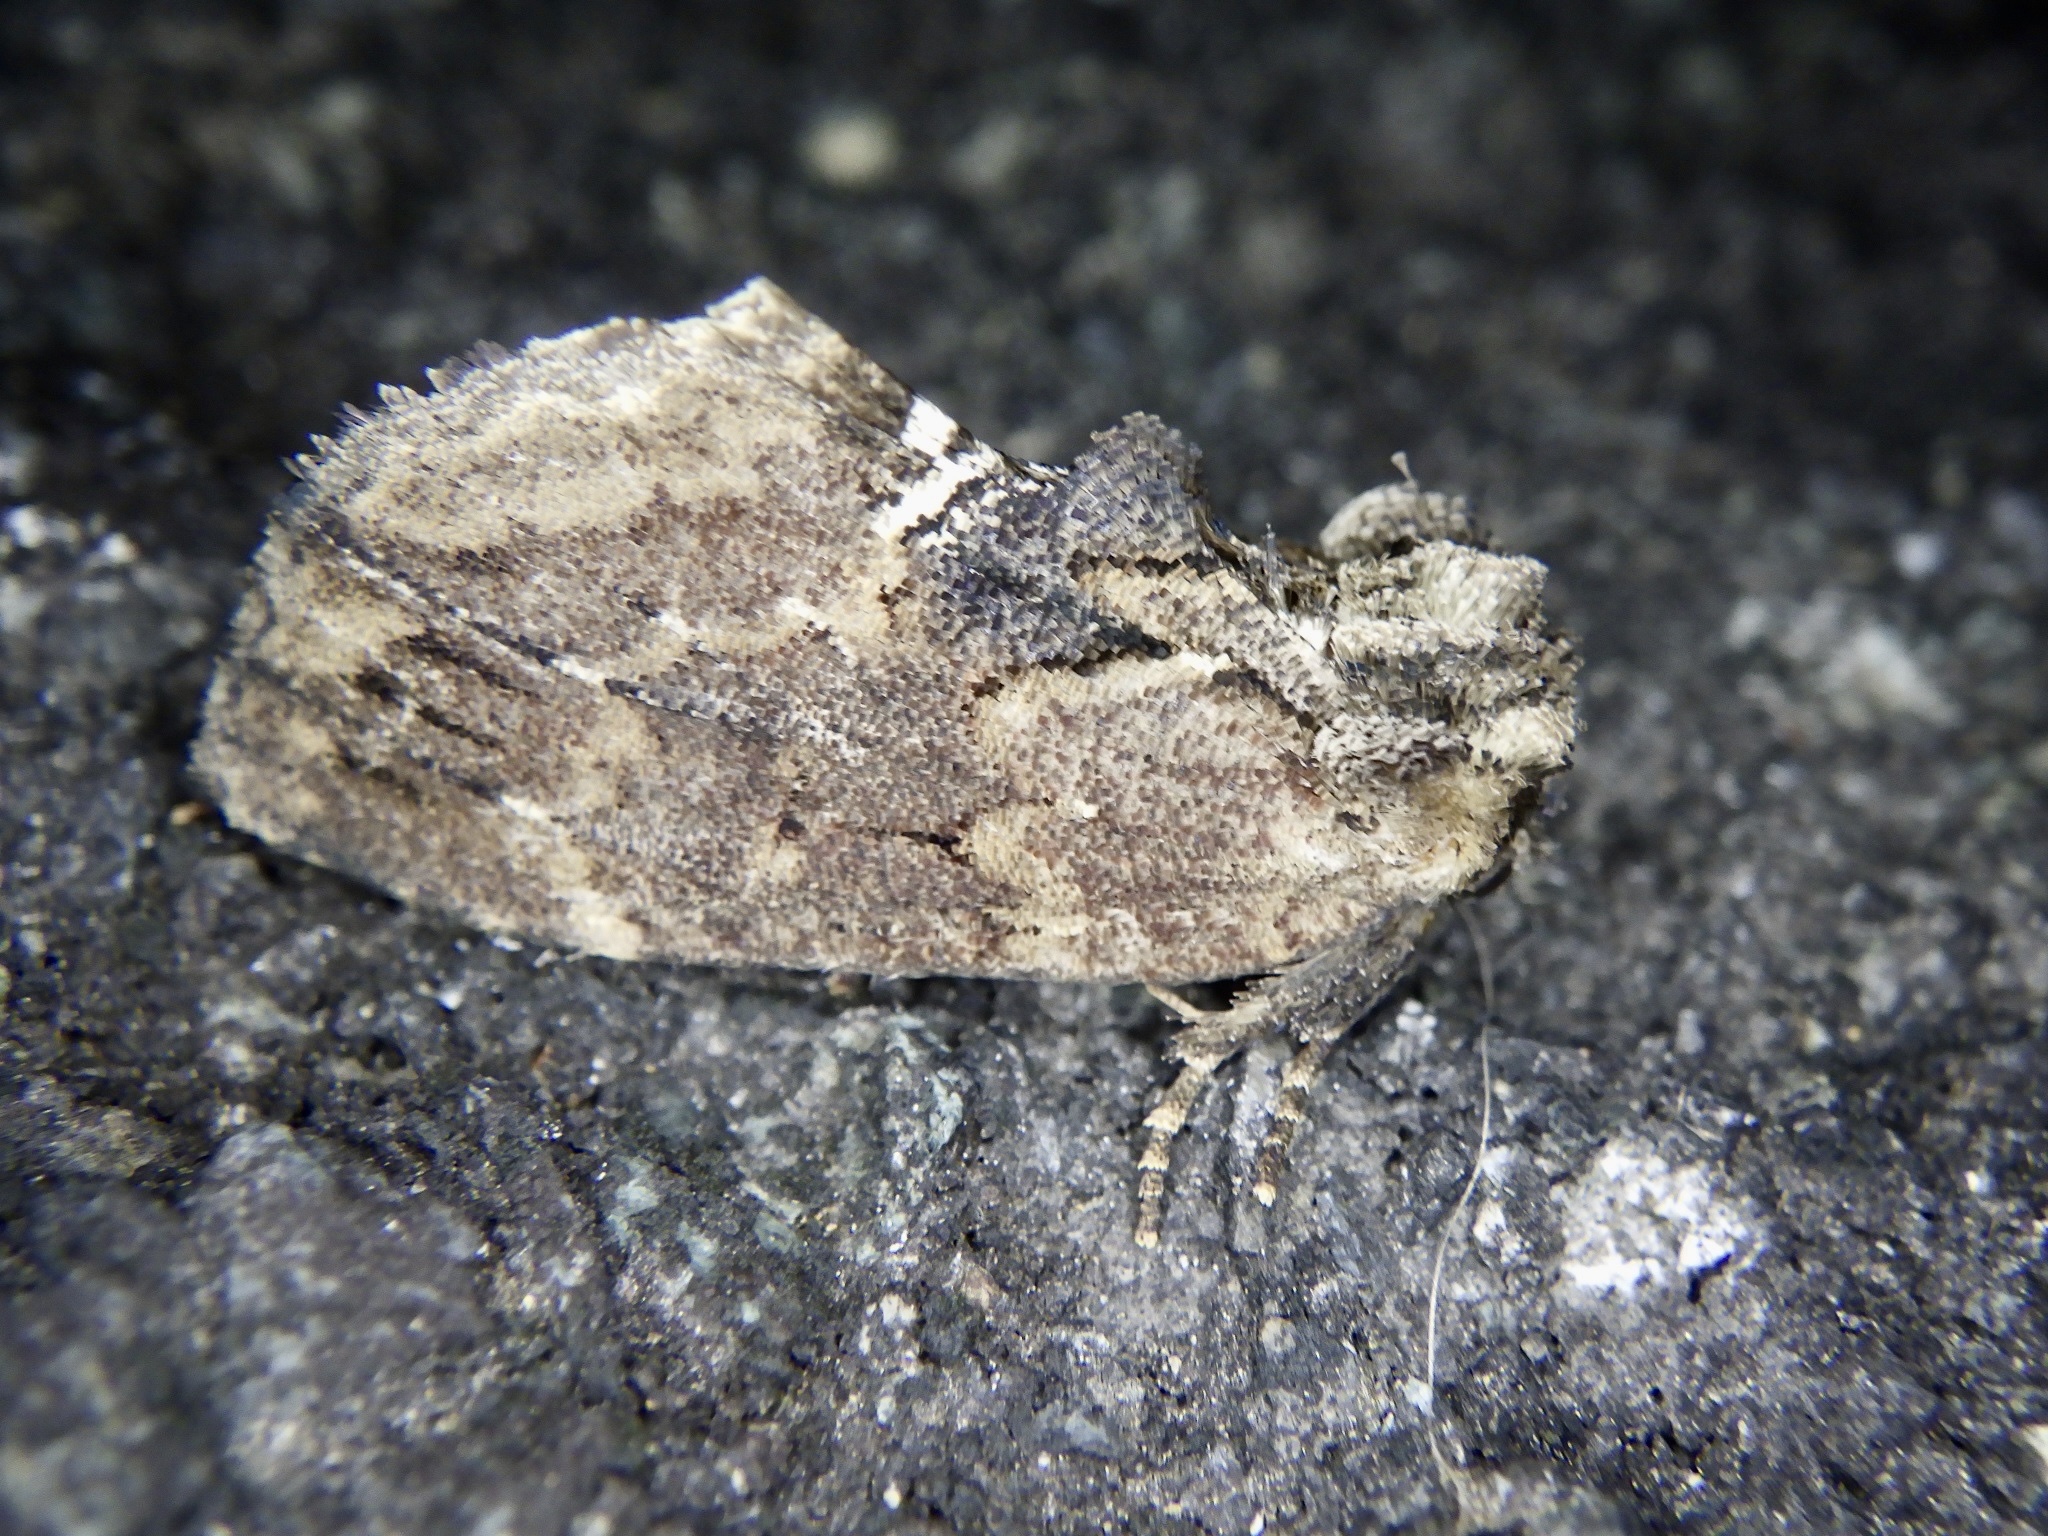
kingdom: Animalia
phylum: Arthropoda
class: Insecta
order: Lepidoptera
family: Notodontidae
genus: Lophontosia
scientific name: Lophontosia
